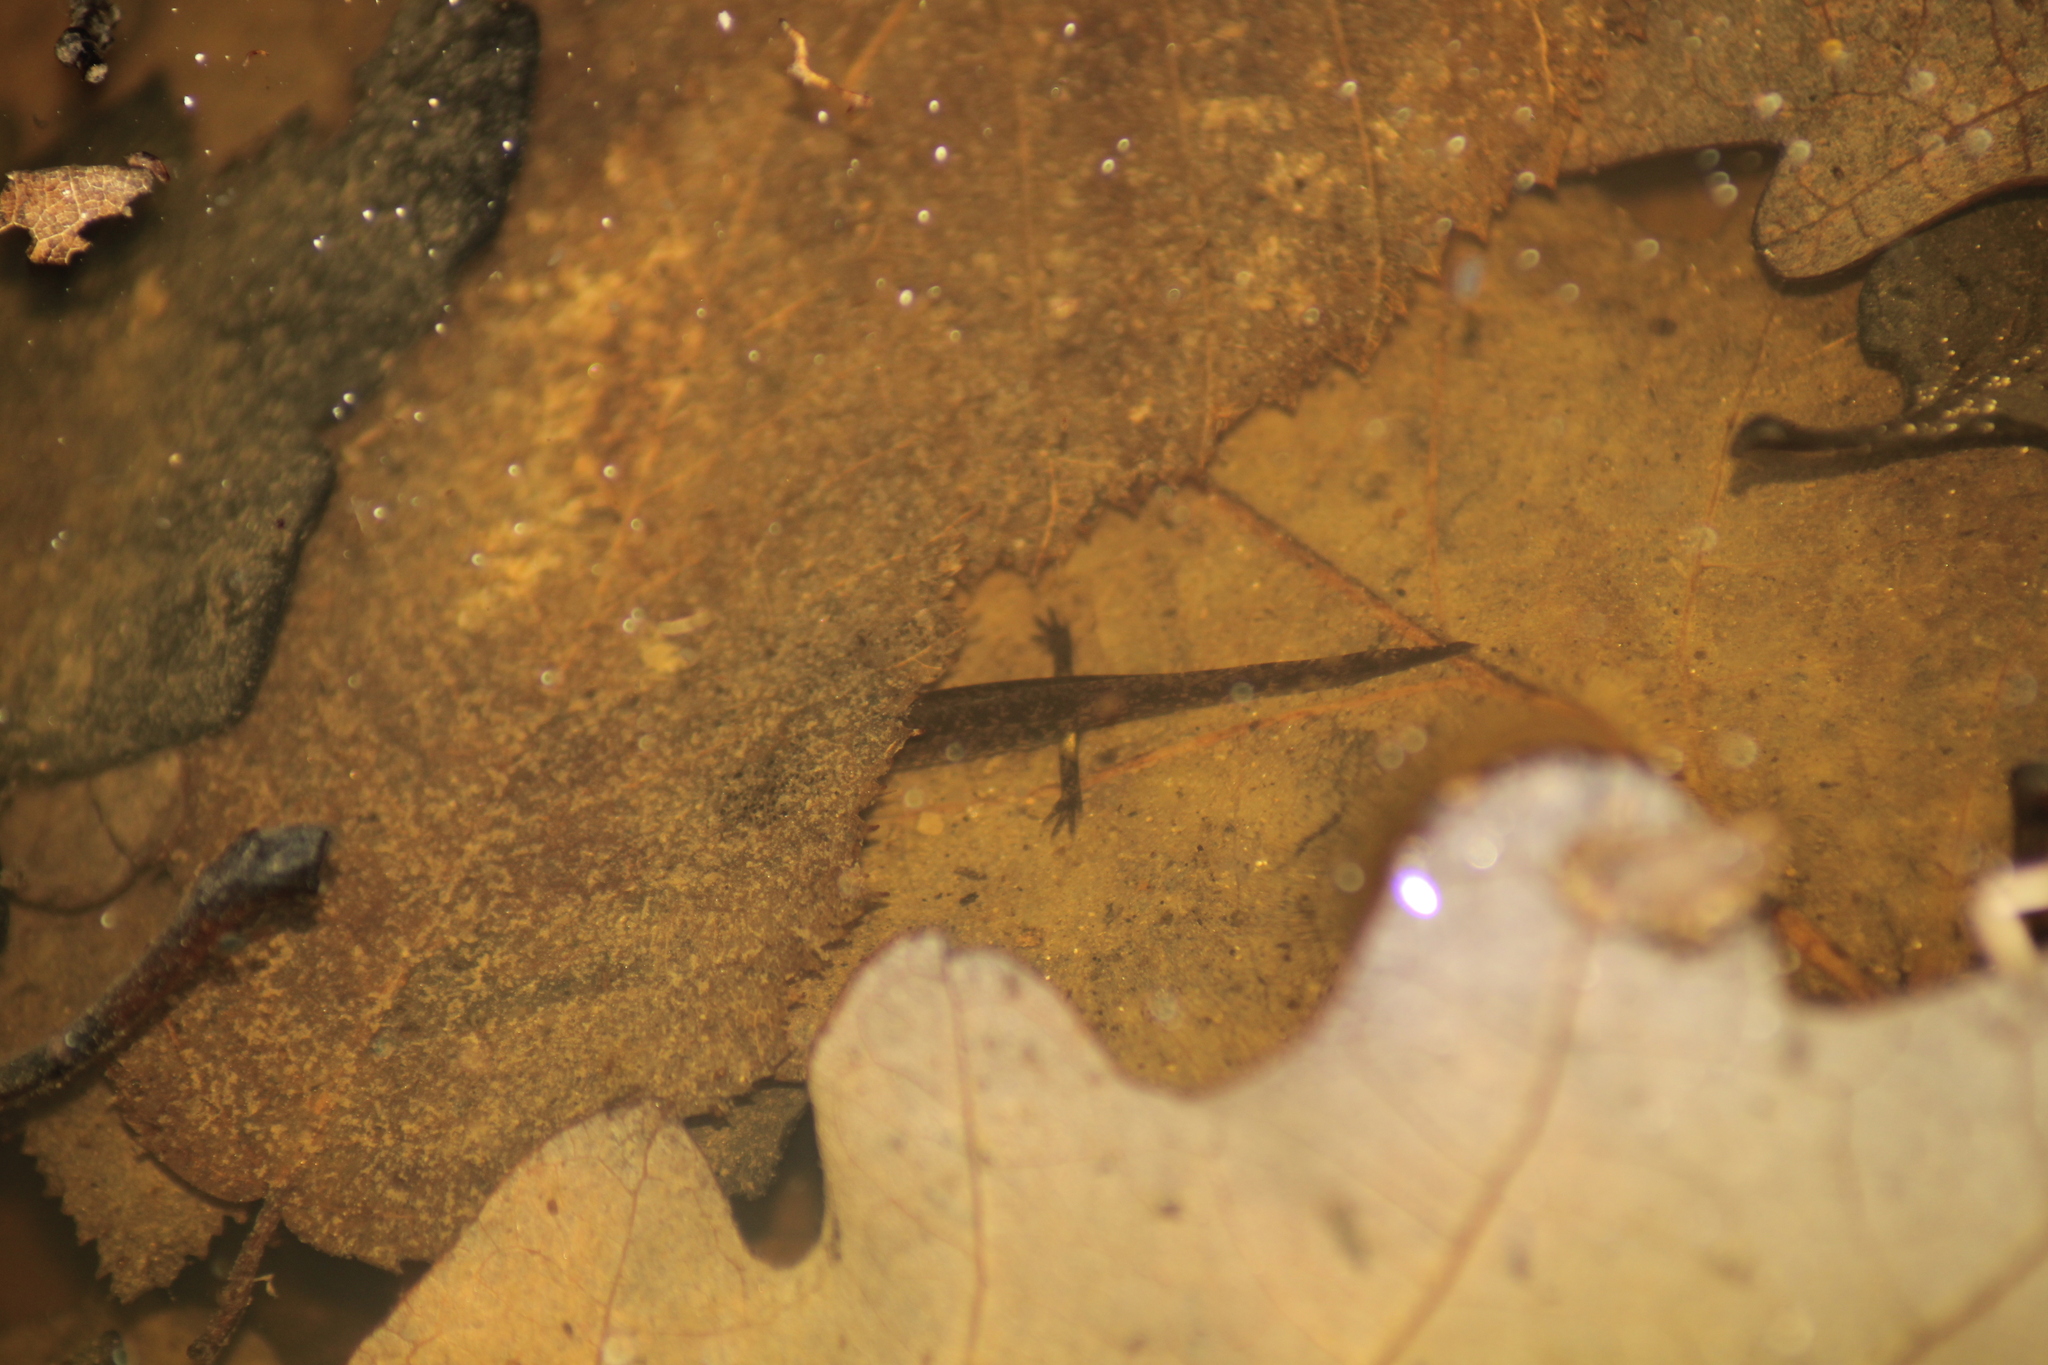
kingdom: Animalia
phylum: Chordata
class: Amphibia
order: Caudata
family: Salamandridae
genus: Salamandra
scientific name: Salamandra salamandra
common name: Fire salamander
